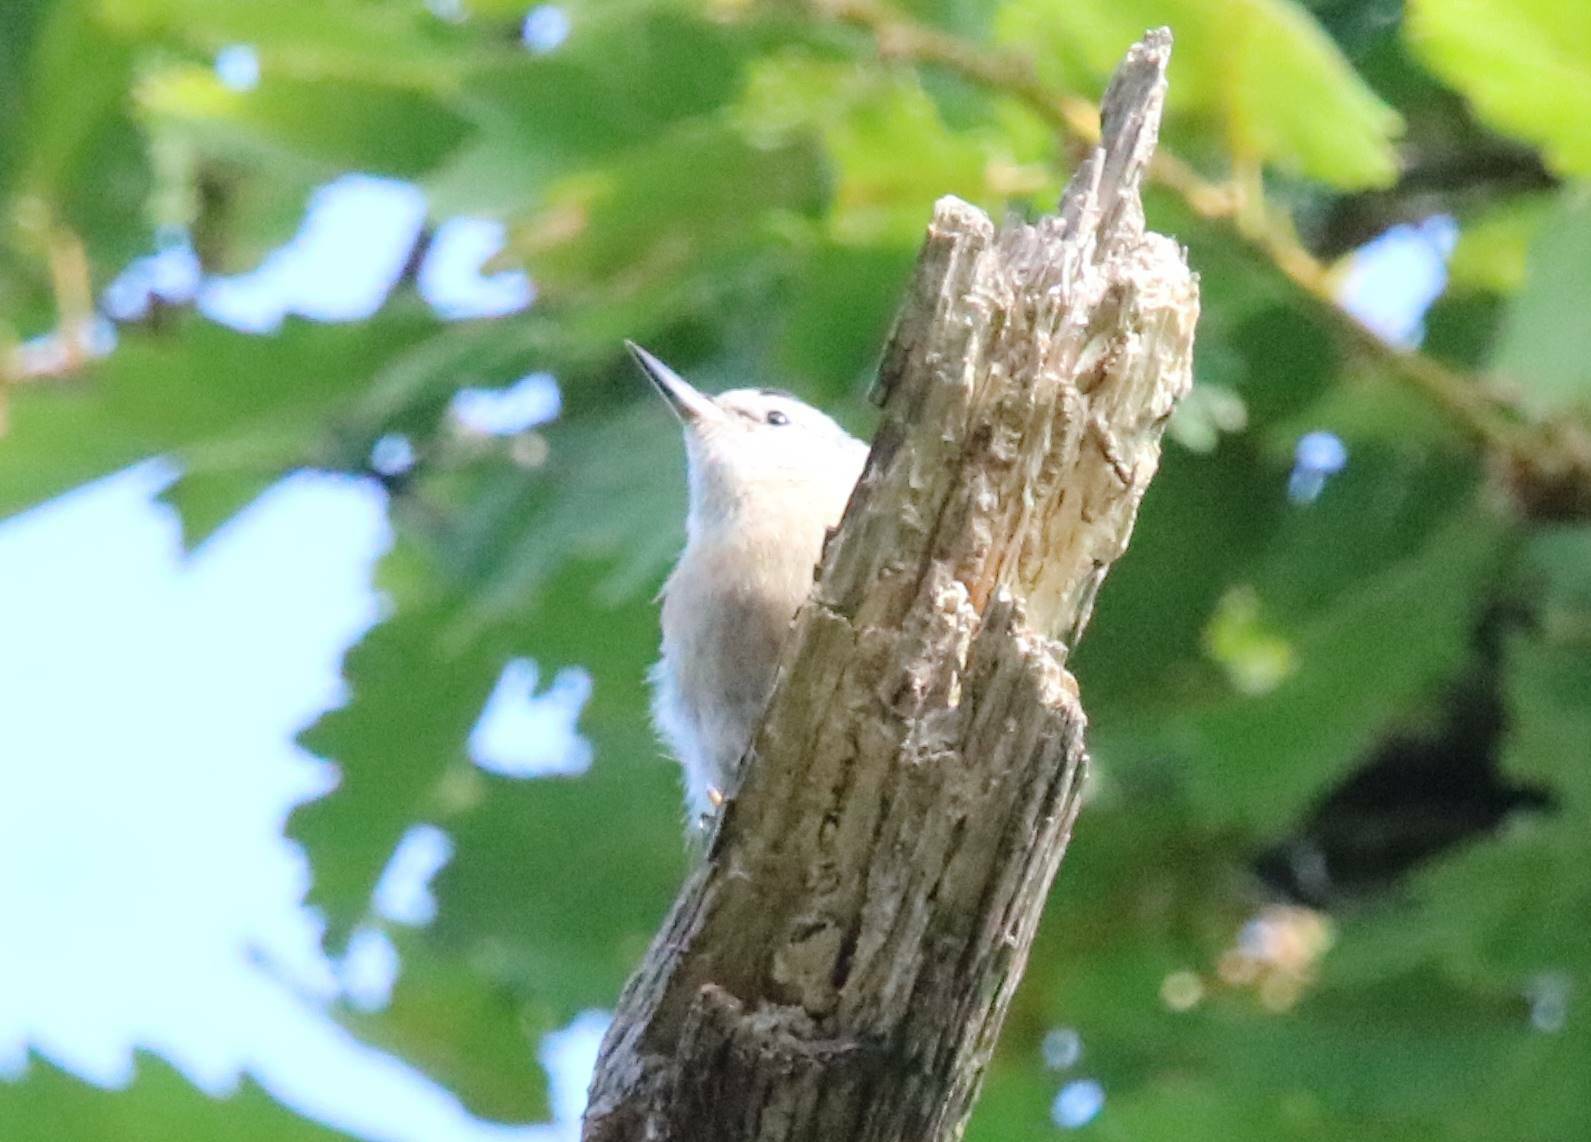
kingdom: Animalia
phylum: Chordata
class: Aves
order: Passeriformes
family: Sittidae
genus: Sitta
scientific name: Sitta ledanti
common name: Algerian nuthatch
